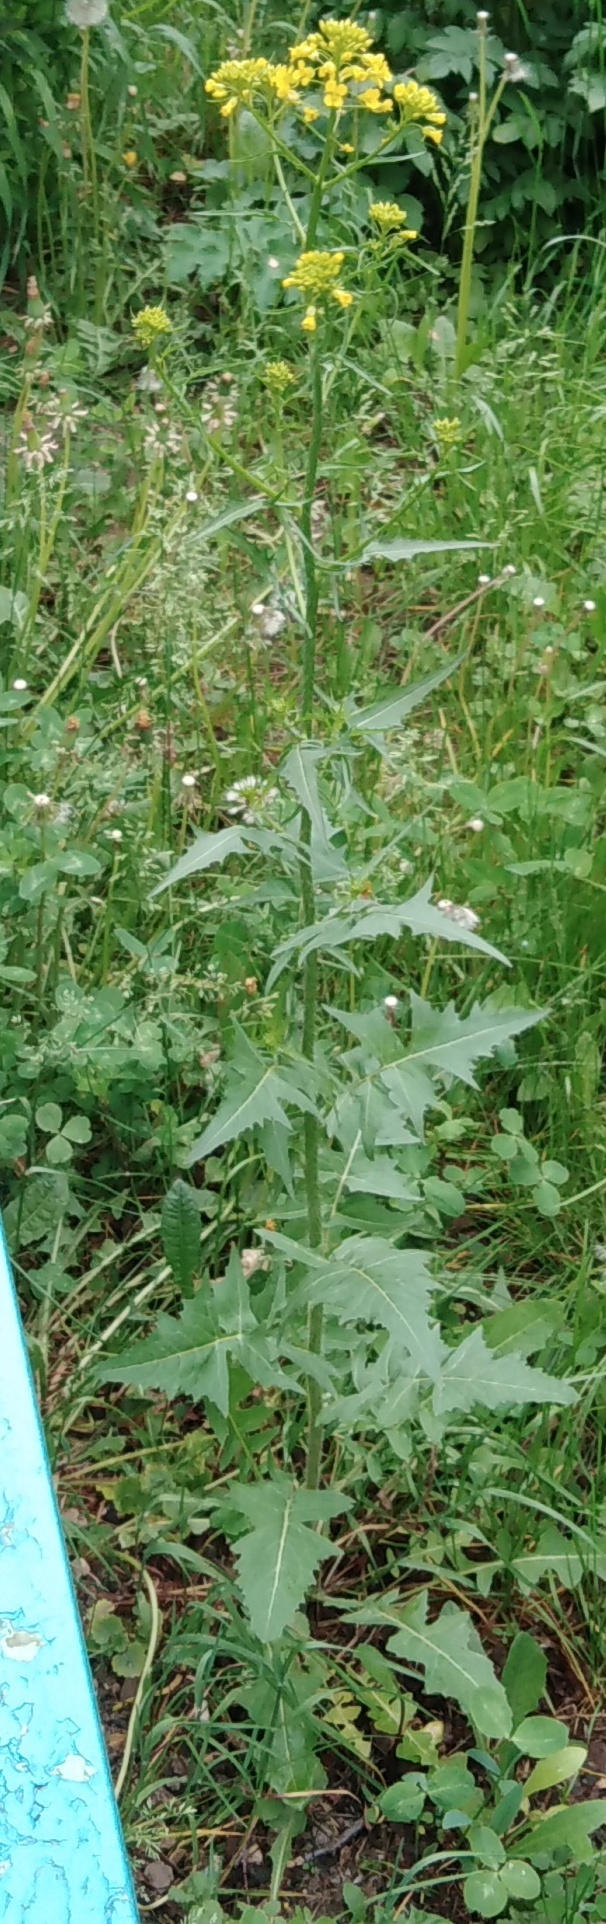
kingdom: Plantae
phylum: Tracheophyta
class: Magnoliopsida
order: Brassicales
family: Brassicaceae
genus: Sisymbrium
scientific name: Sisymbrium loeselii
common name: False london-rocket
